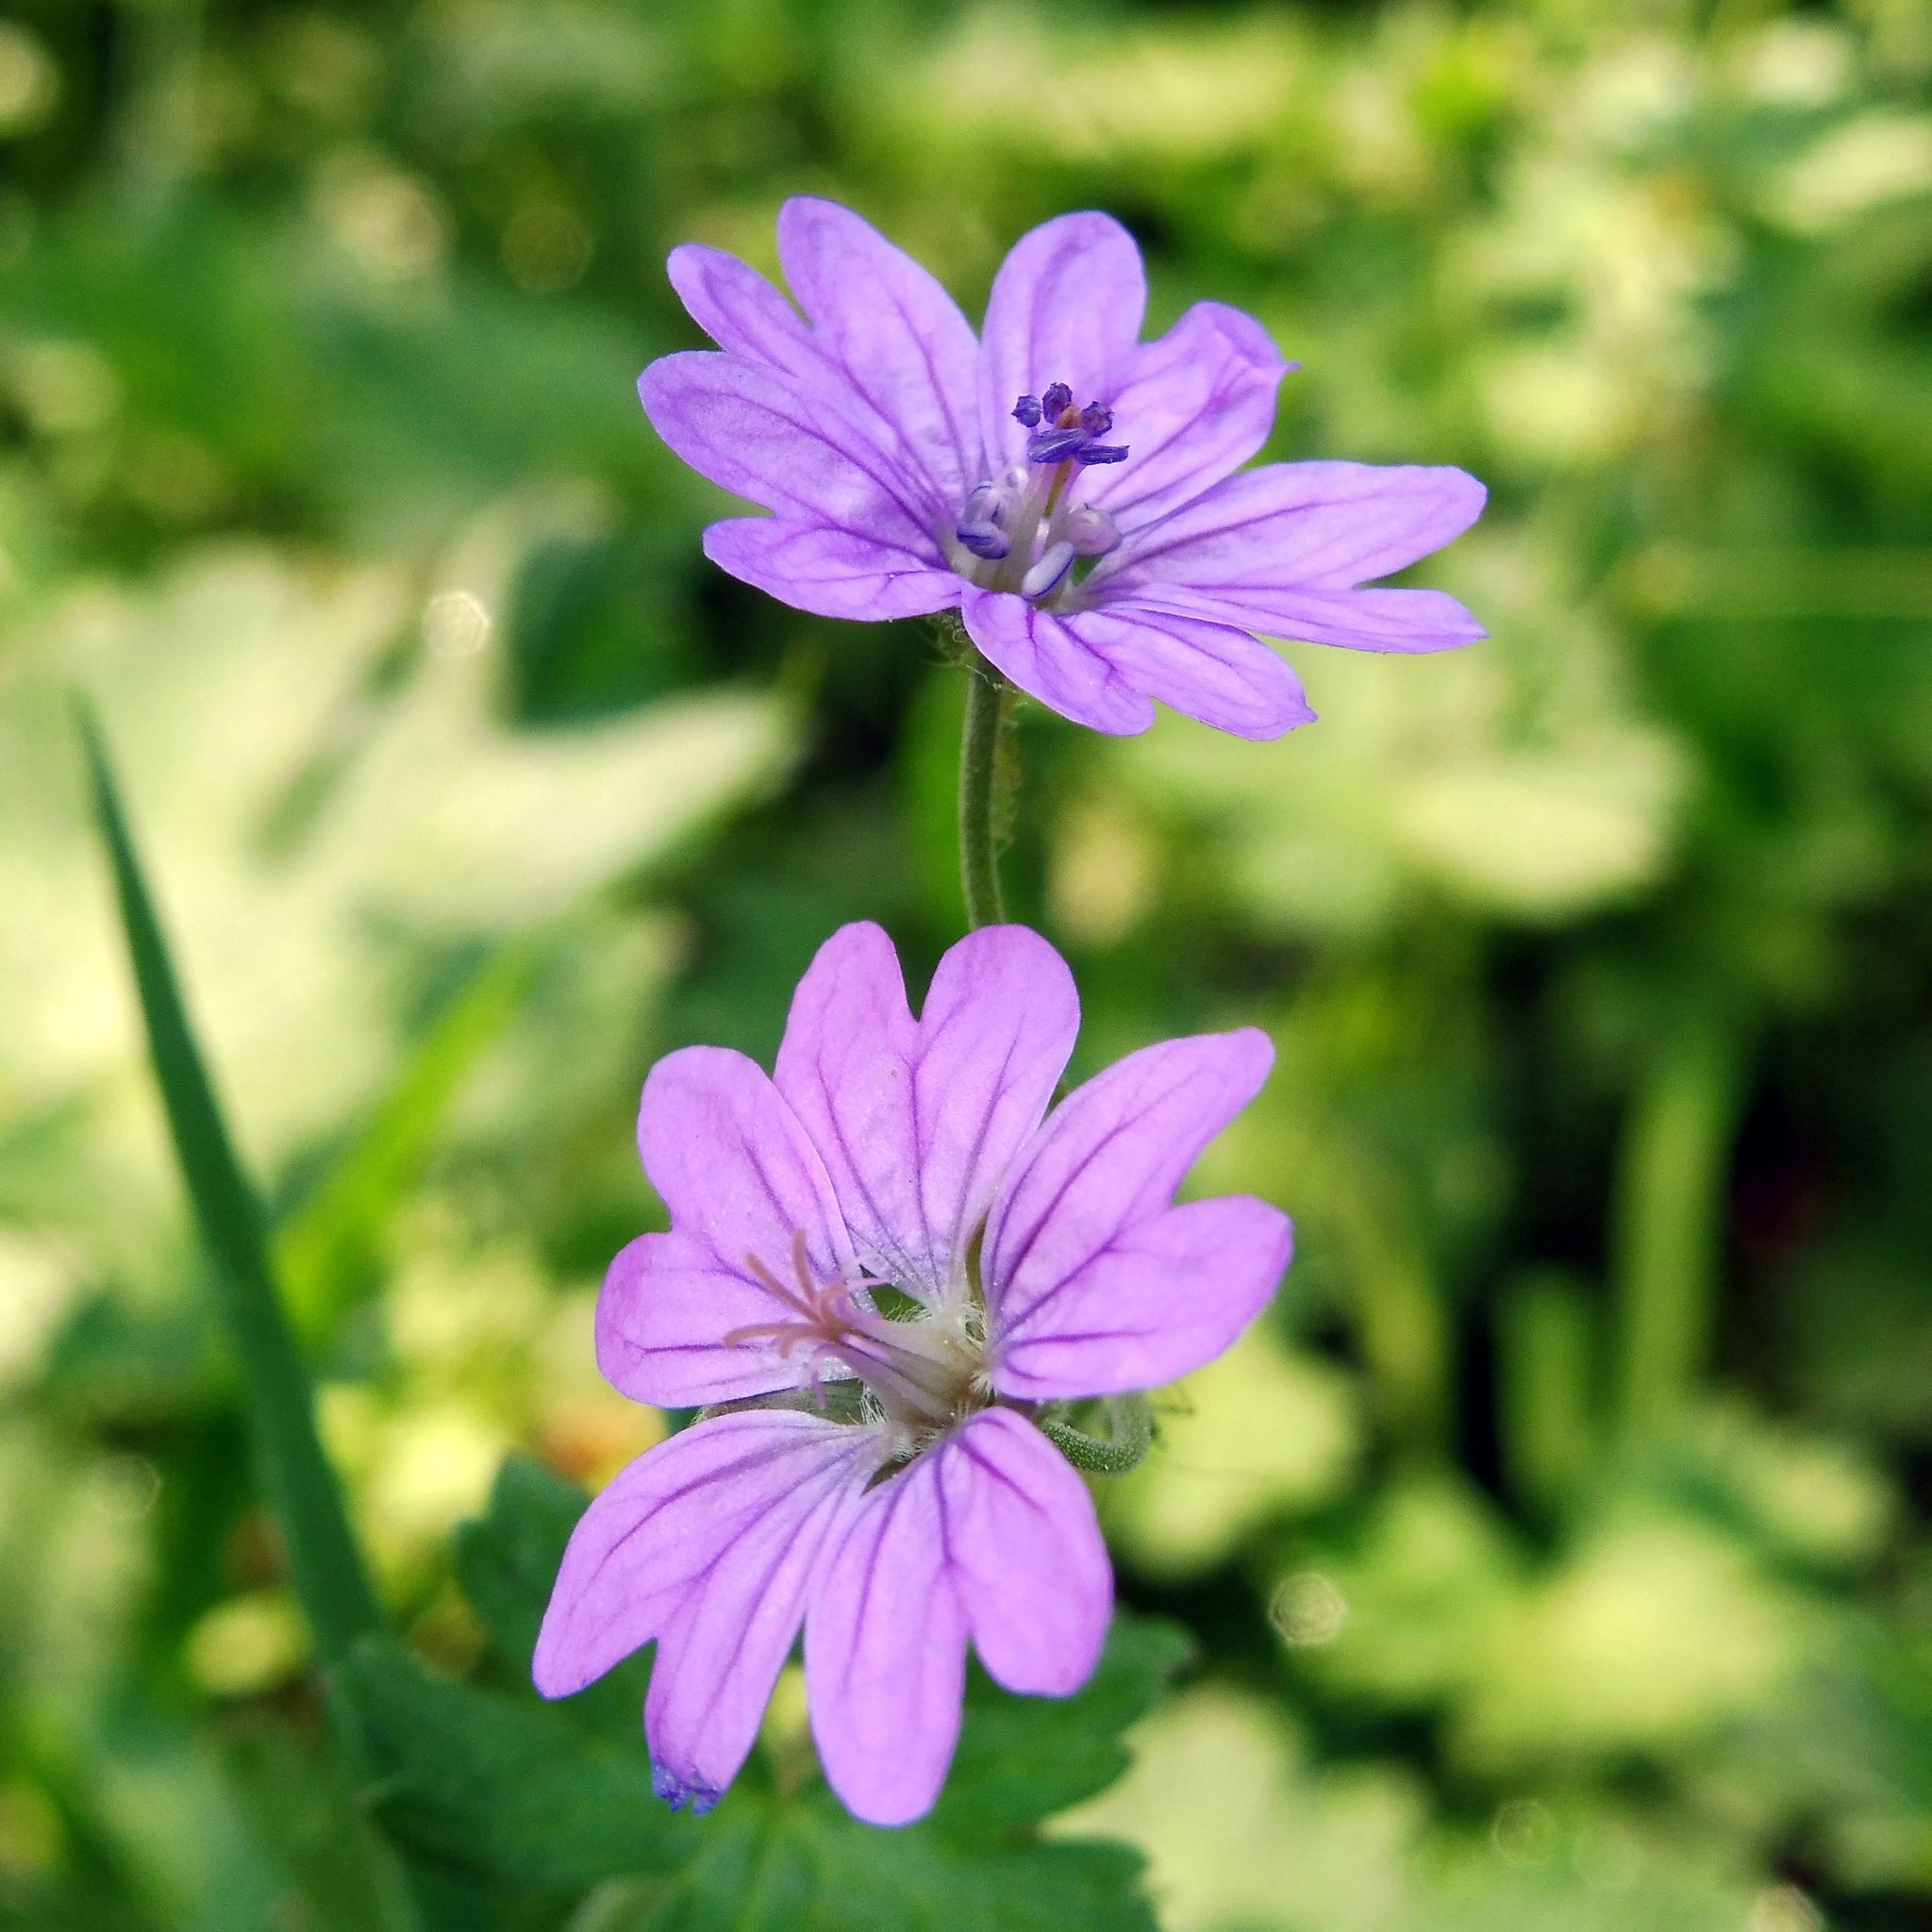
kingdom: Plantae
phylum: Tracheophyta
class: Magnoliopsida
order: Geraniales
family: Geraniaceae
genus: Geranium
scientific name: Geranium molle
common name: Dove's-foot crane's-bill
